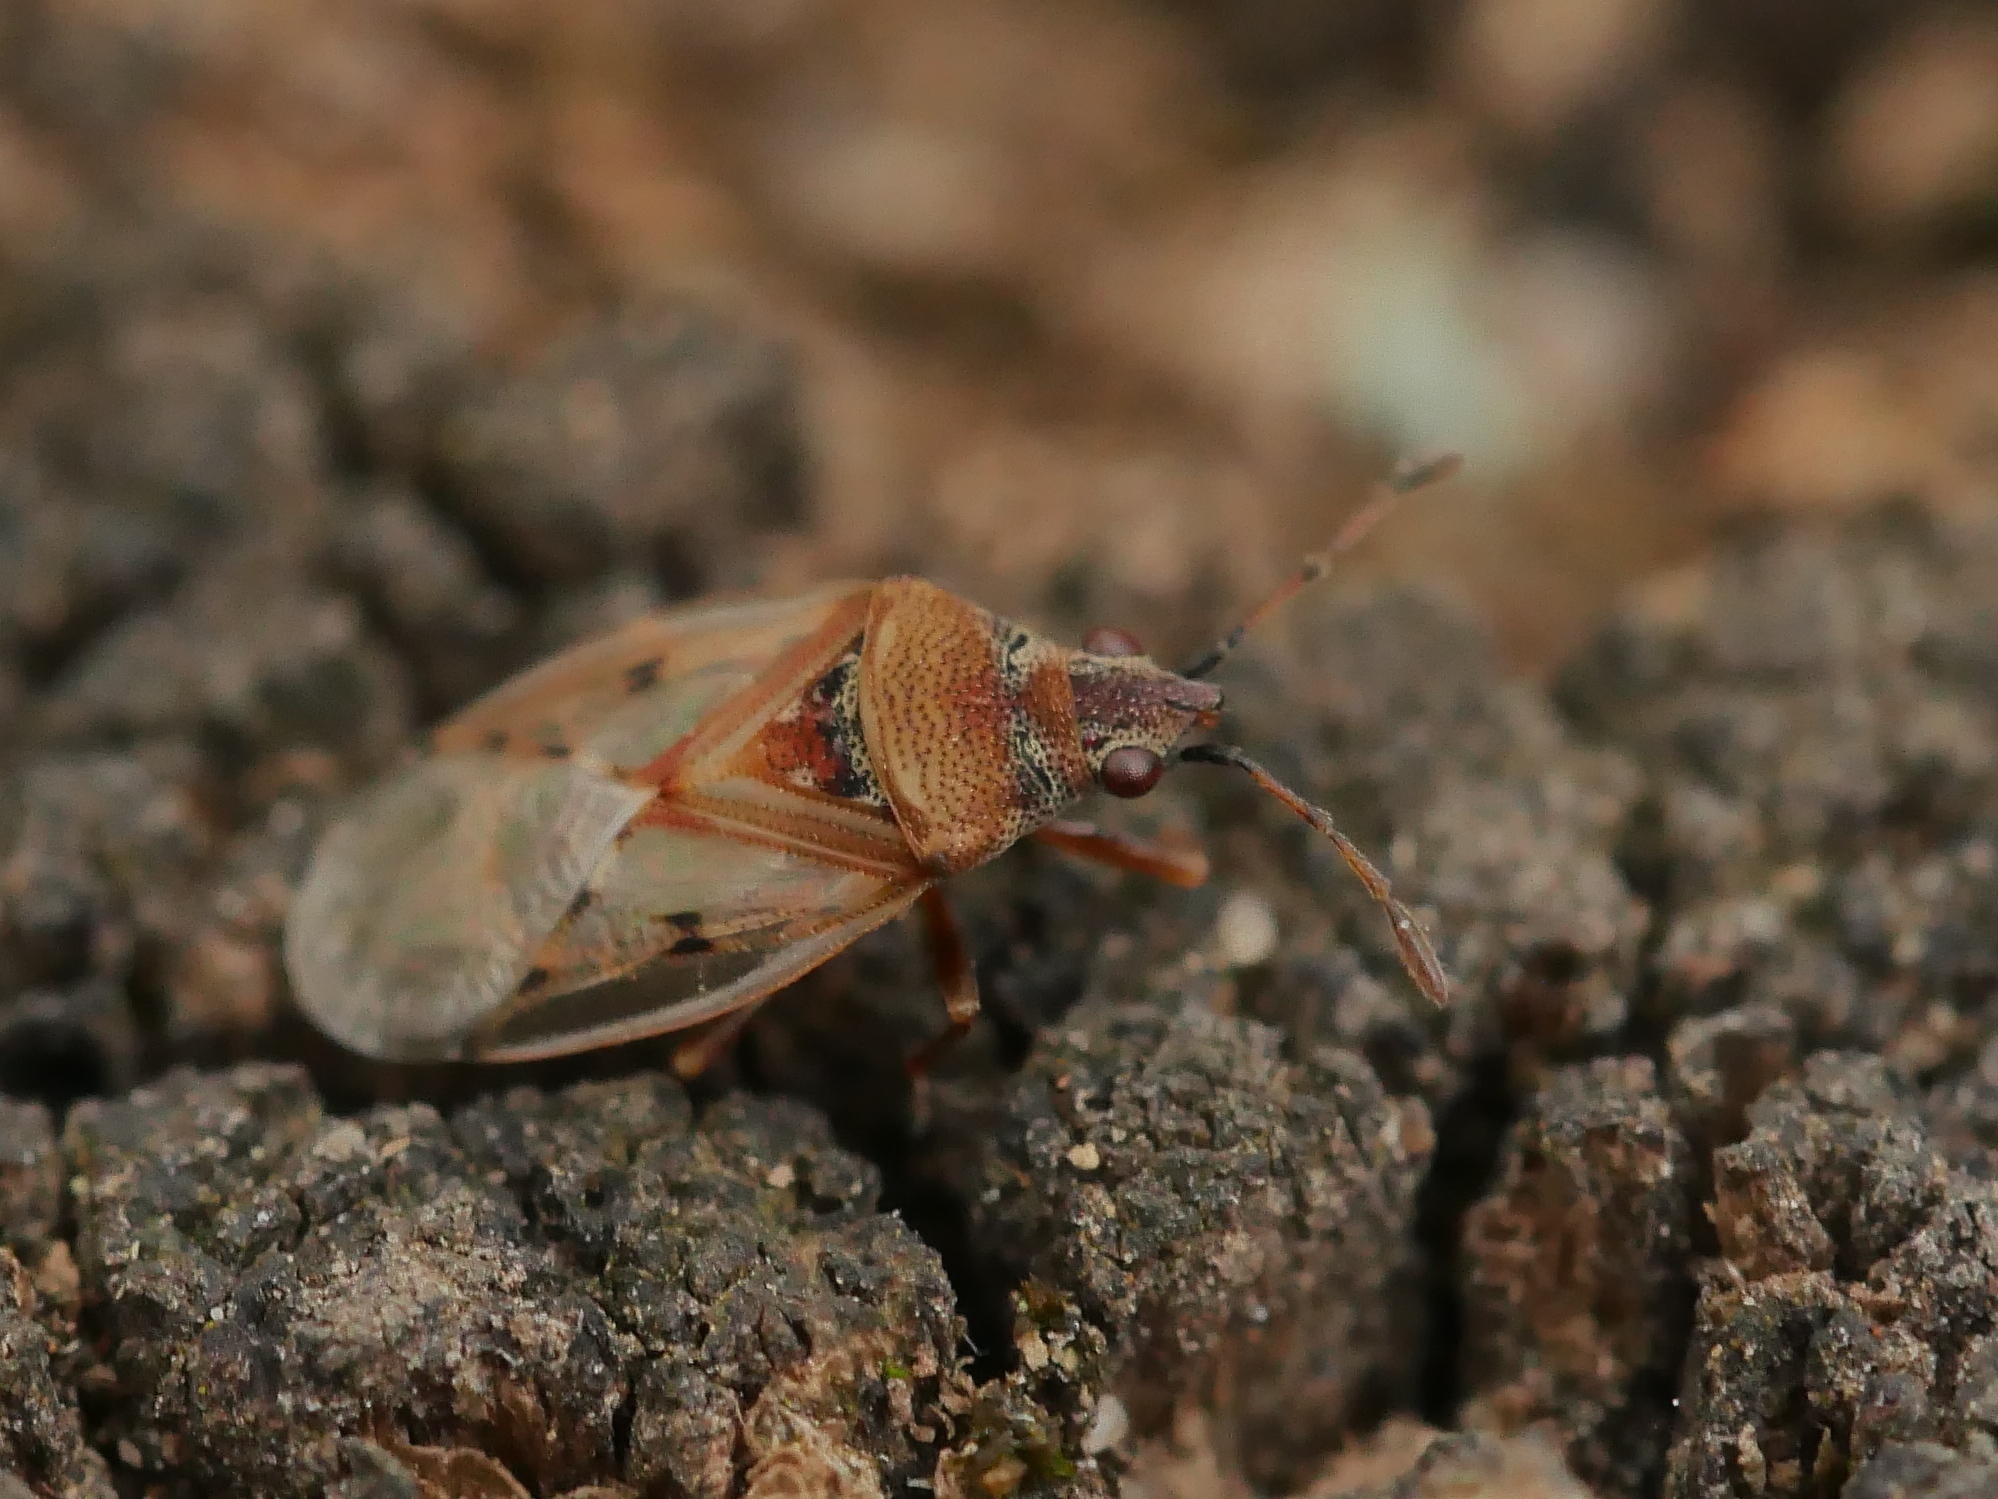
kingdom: Animalia
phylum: Arthropoda
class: Insecta
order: Hemiptera
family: Lygaeidae
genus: Kleidocerys
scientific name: Kleidocerys resedae
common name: Birch catkin bug
